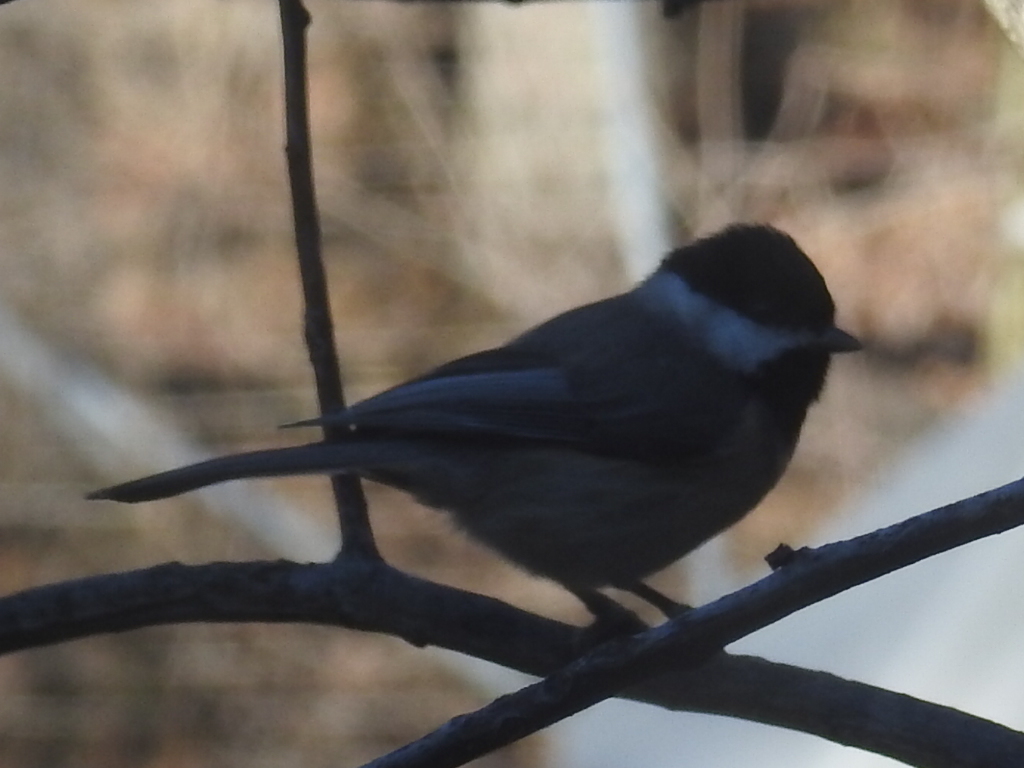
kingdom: Animalia
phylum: Chordata
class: Aves
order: Passeriformes
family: Paridae
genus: Poecile
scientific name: Poecile carolinensis
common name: Carolina chickadee
